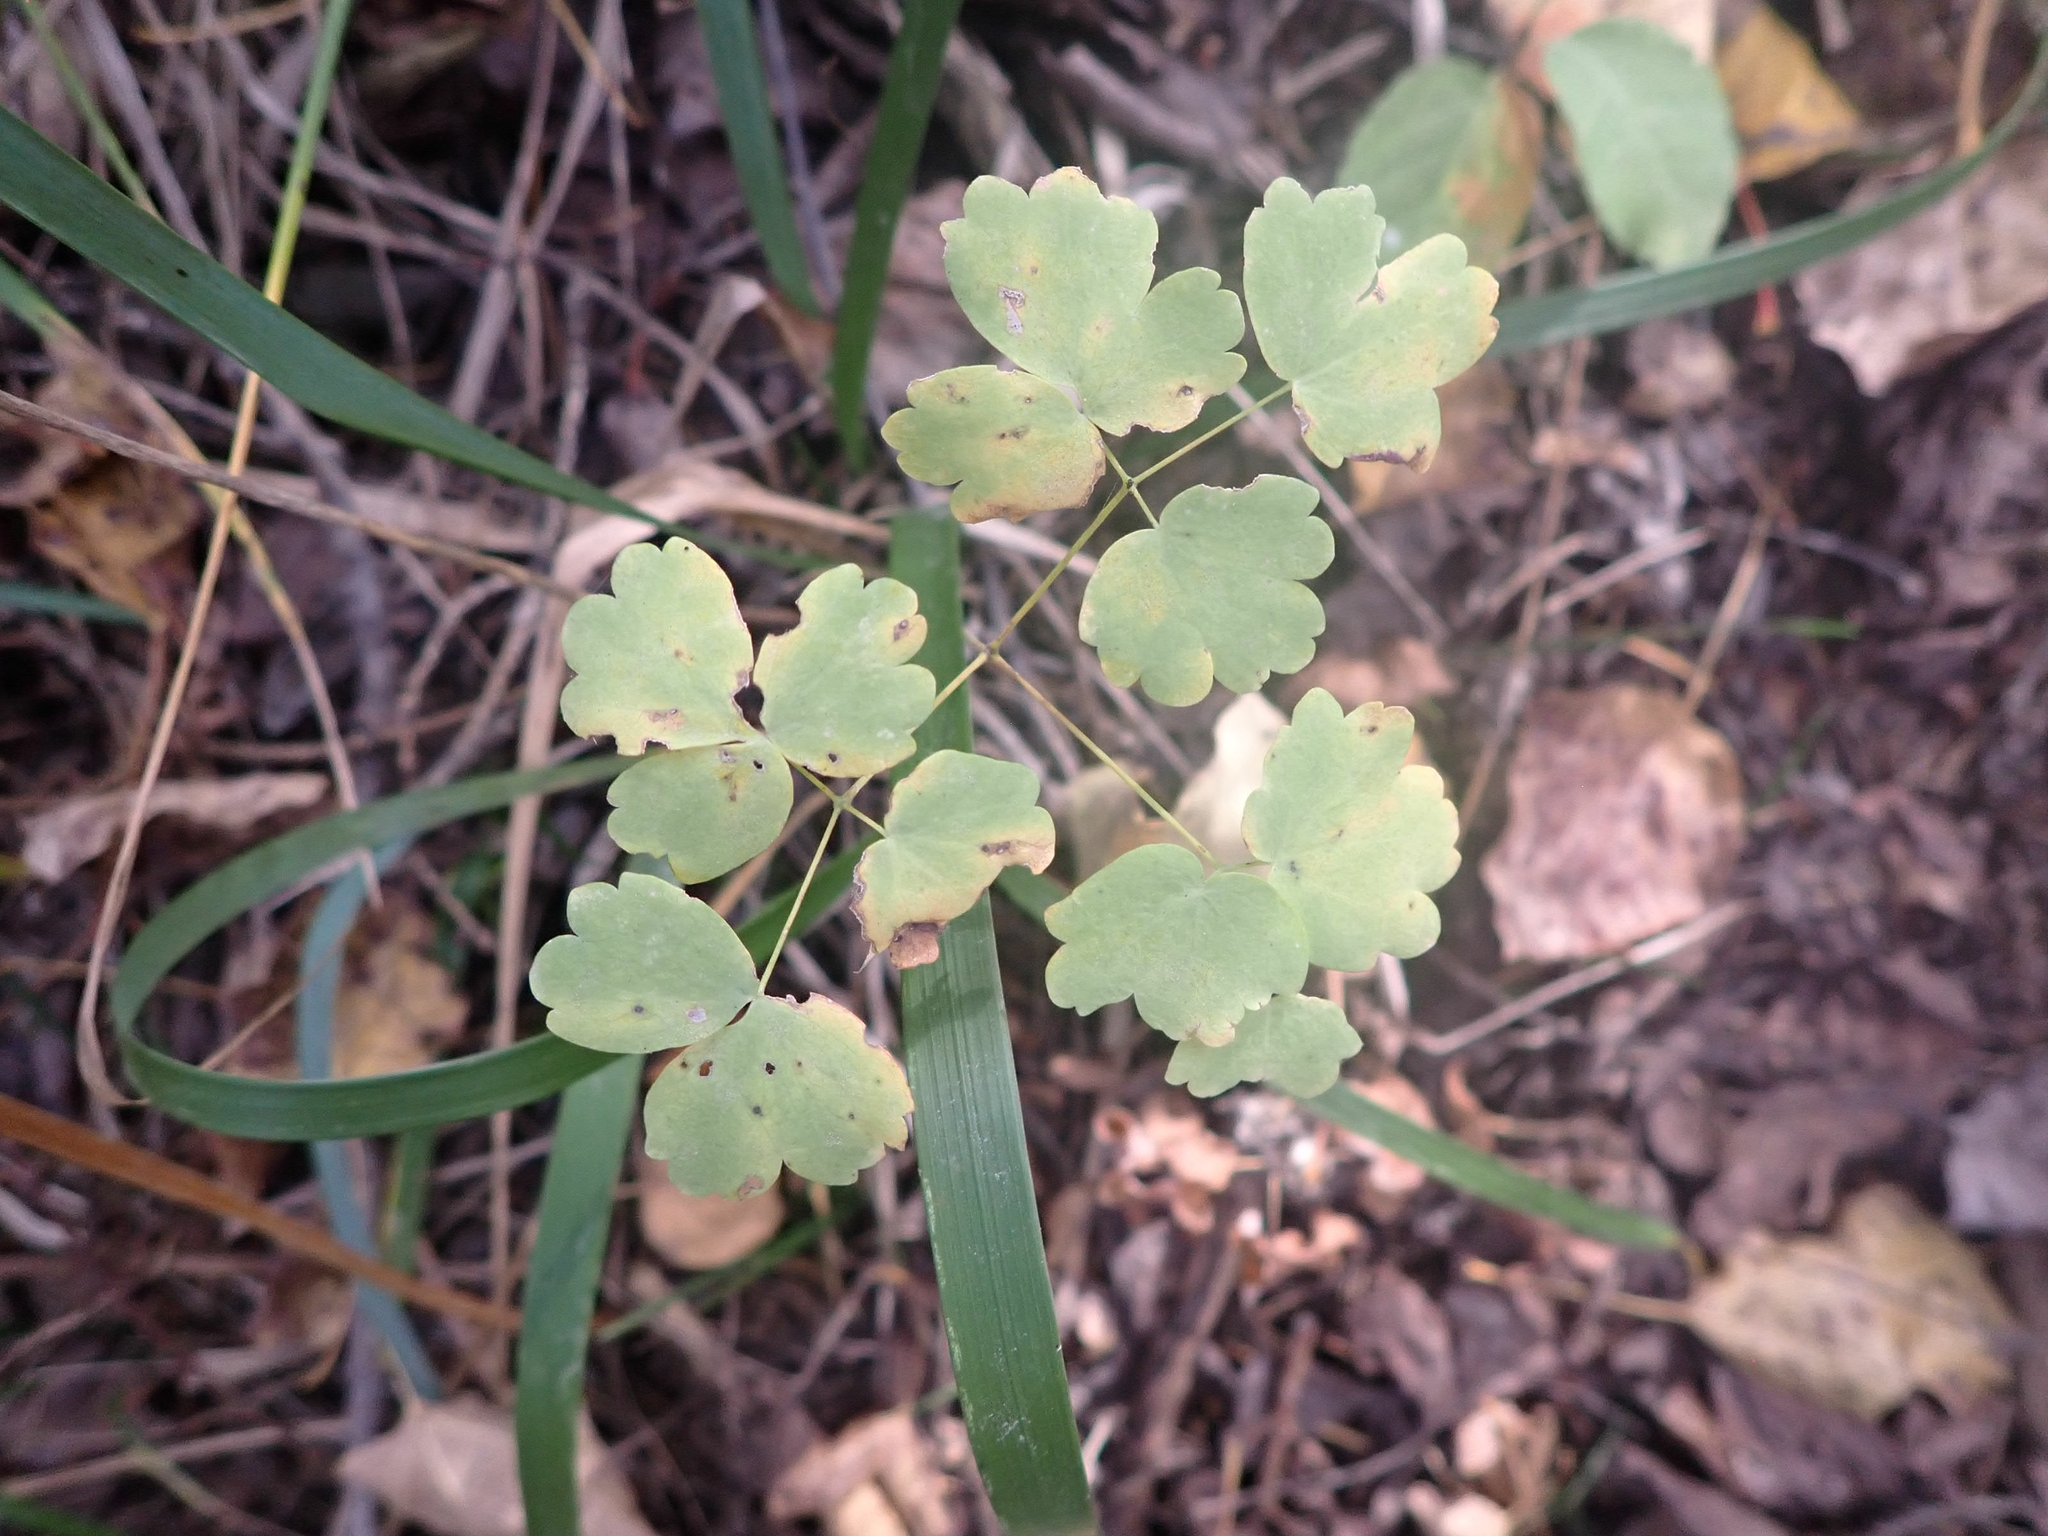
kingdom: Plantae
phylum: Tracheophyta
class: Magnoliopsida
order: Ranunculales
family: Ranunculaceae
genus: Thalictrum
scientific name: Thalictrum venulosum
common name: Early meadow-rue
